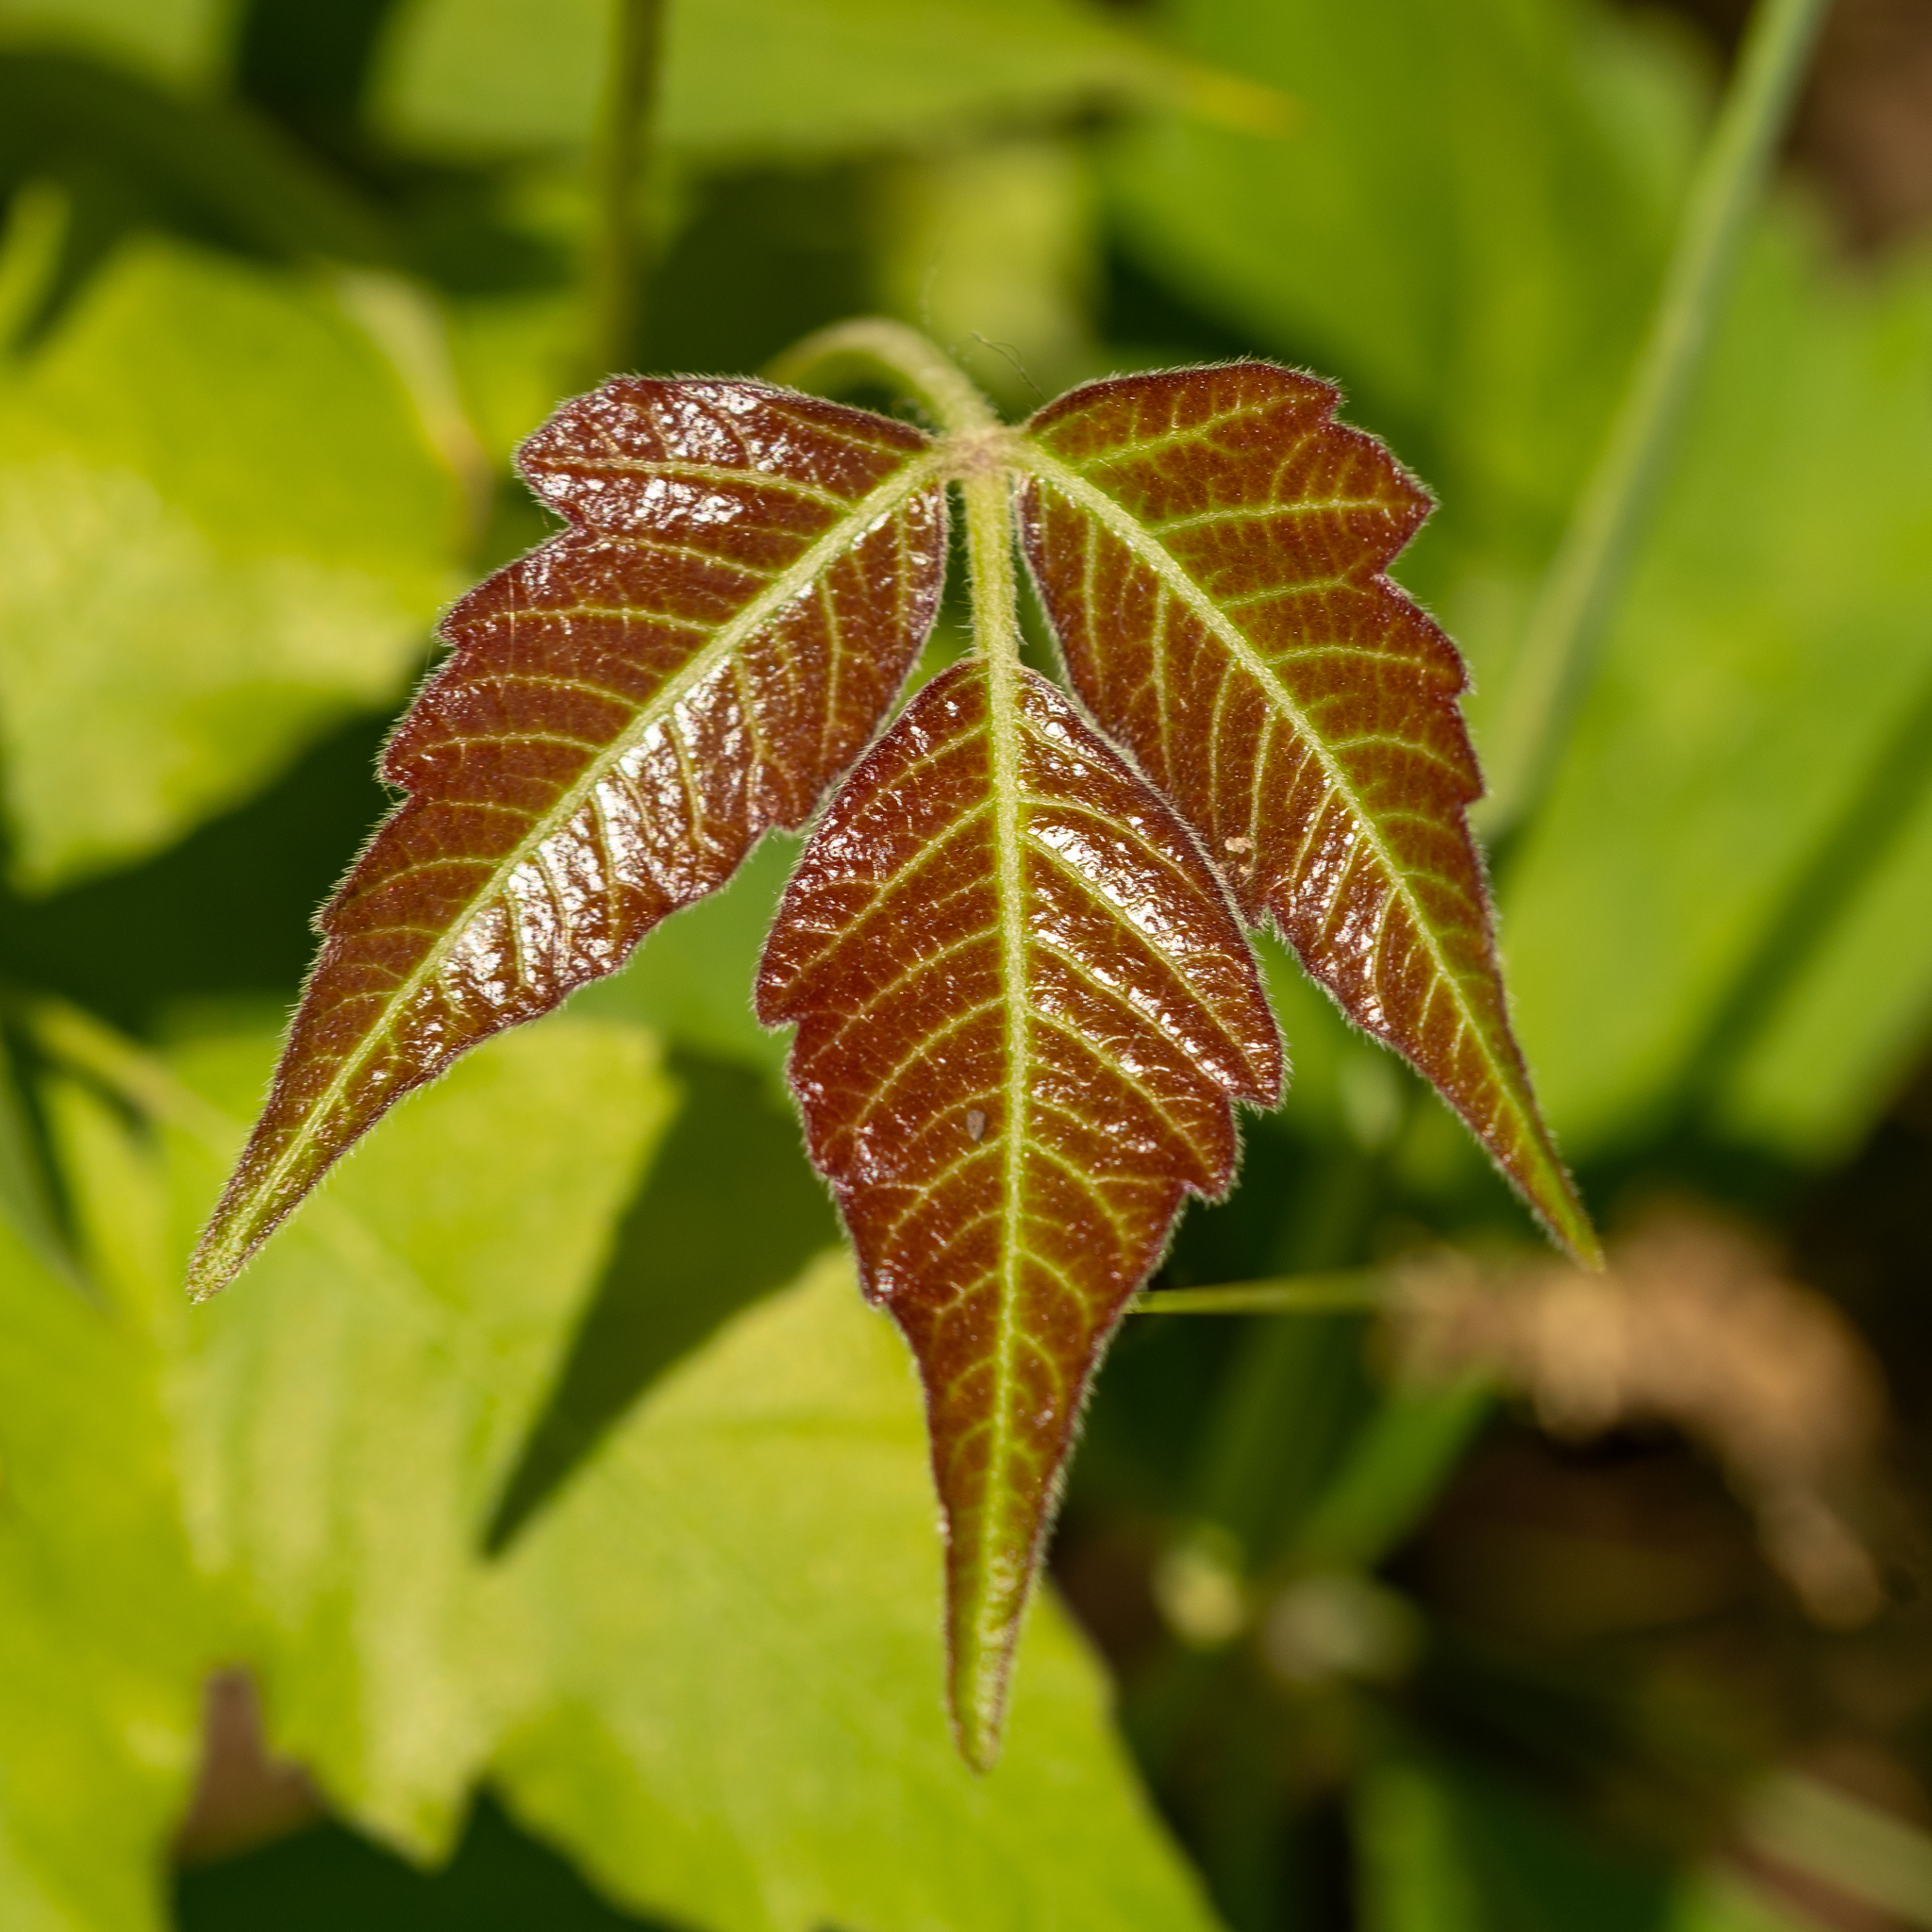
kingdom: Plantae
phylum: Tracheophyta
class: Magnoliopsida
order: Sapindales
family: Anacardiaceae
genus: Toxicodendron
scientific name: Toxicodendron radicans
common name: Poison ivy
